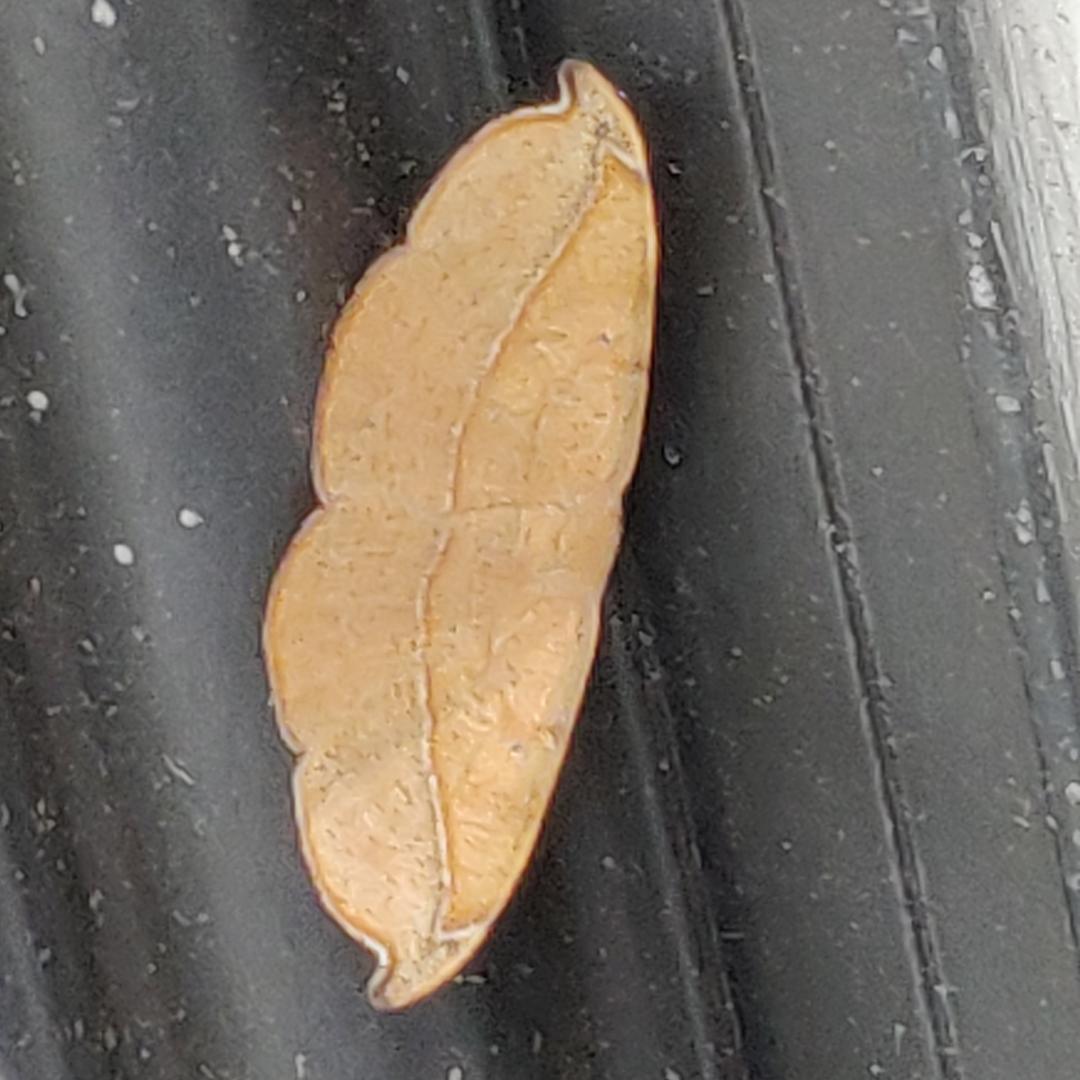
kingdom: Animalia
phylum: Arthropoda
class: Insecta
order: Lepidoptera
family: Geometridae
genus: Patalene
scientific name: Patalene olyzonaria
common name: Juniper geometer moth
